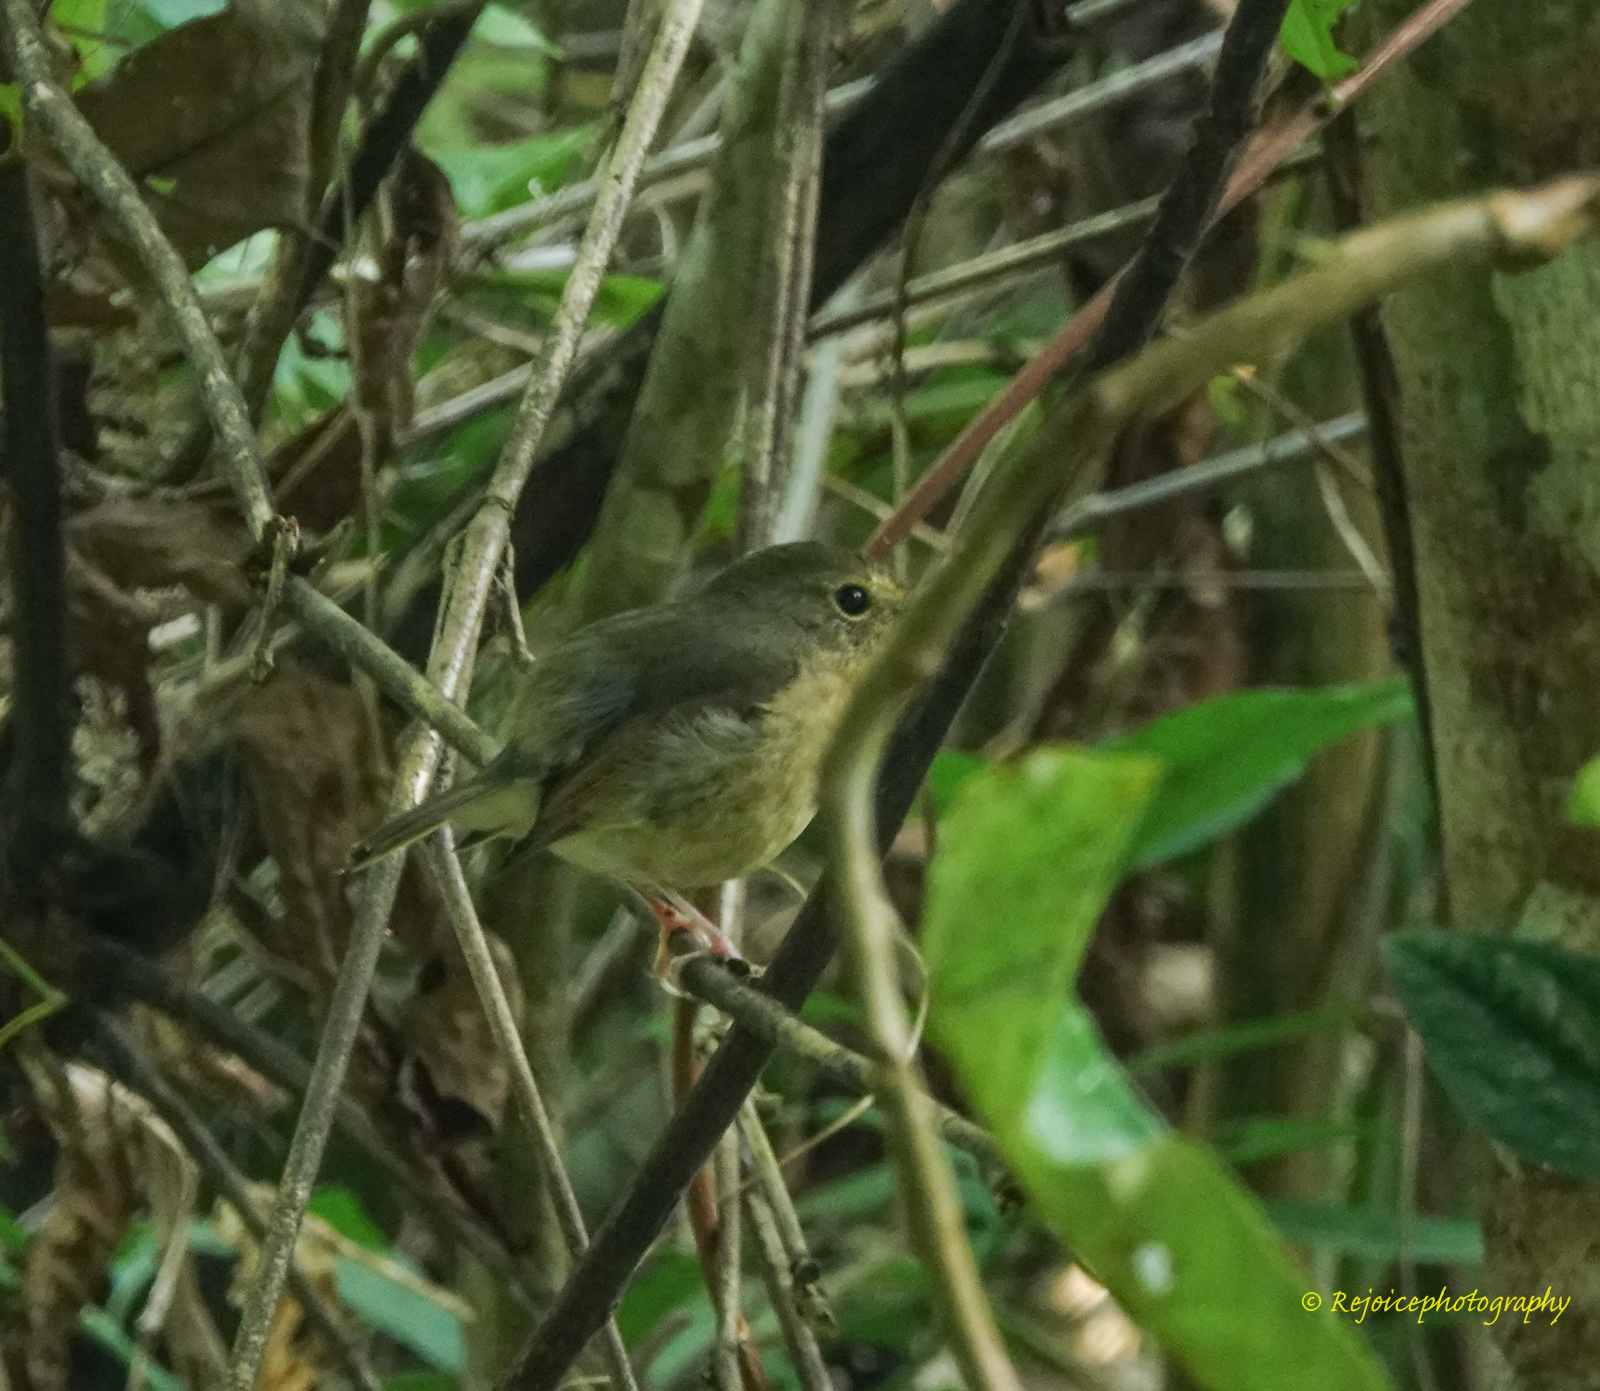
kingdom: Animalia
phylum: Chordata
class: Aves
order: Passeriformes
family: Muscicapidae
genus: Brachypteryx
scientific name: Brachypteryx leucophris
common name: Lesser shortwing
